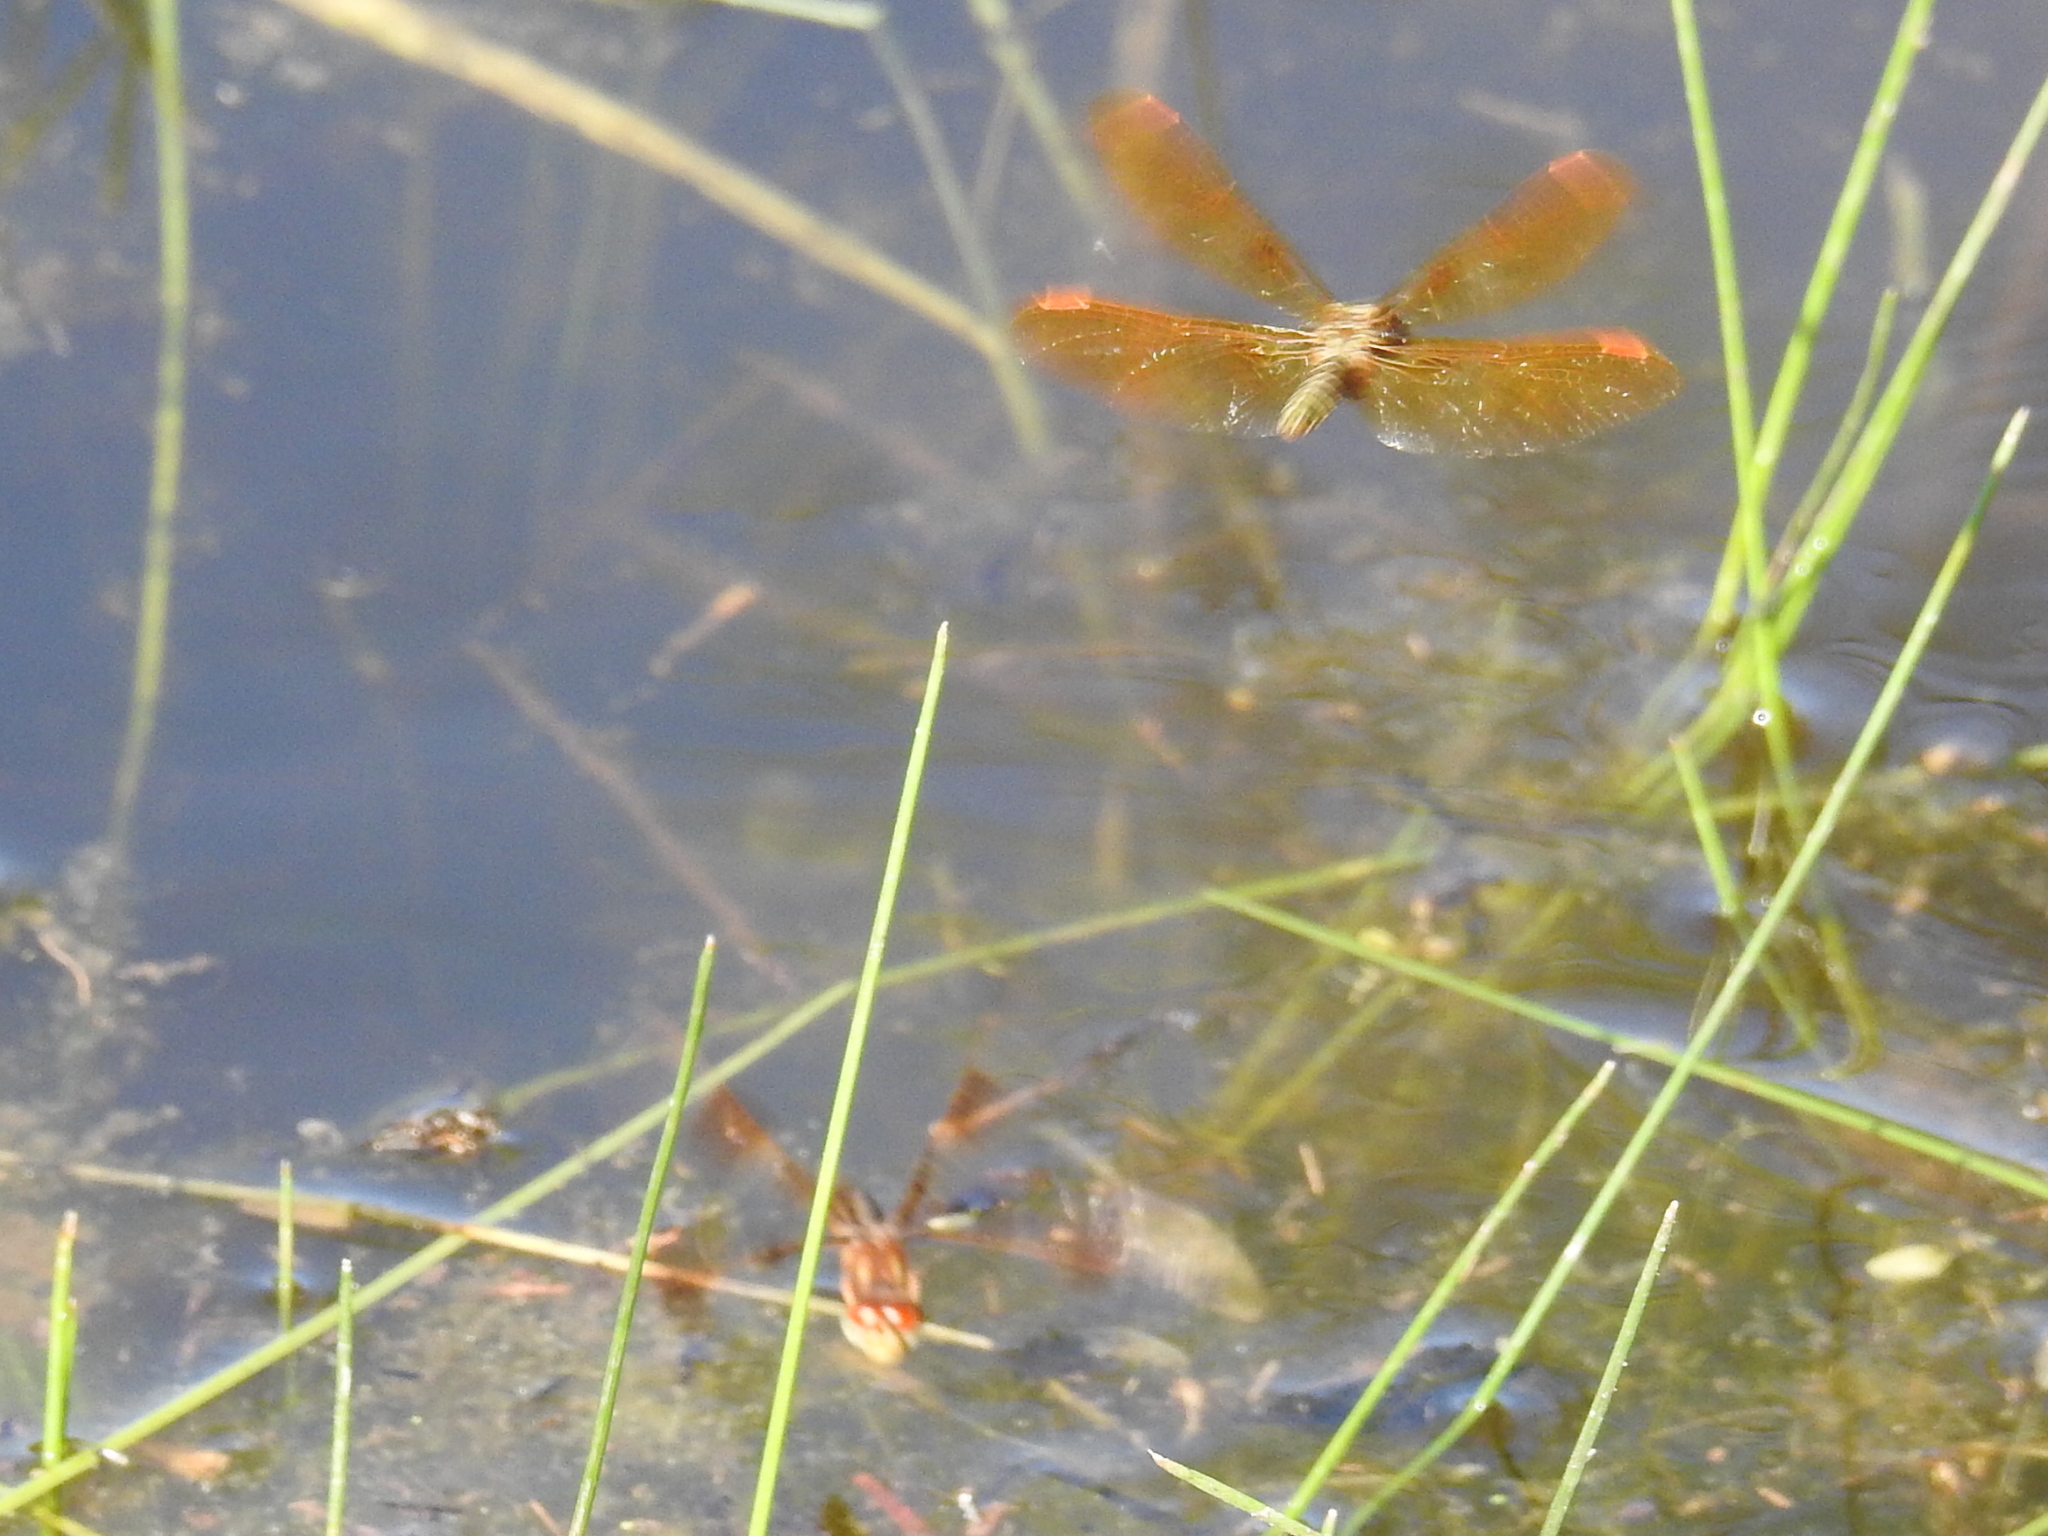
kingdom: Animalia
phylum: Arthropoda
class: Insecta
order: Odonata
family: Libellulidae
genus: Perithemis
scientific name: Perithemis tenera
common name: Eastern amberwing
